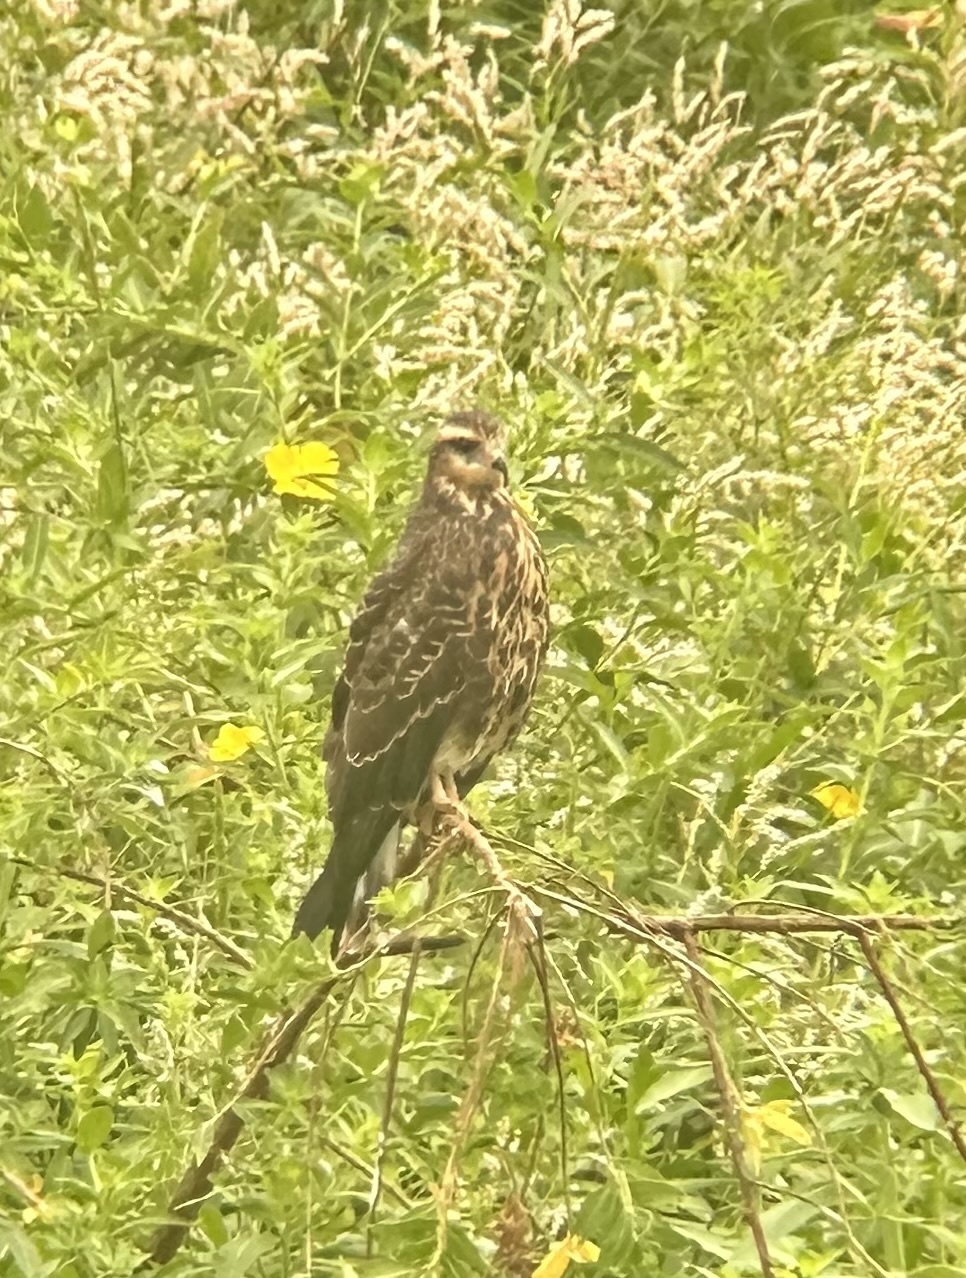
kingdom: Animalia
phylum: Chordata
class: Aves
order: Accipitriformes
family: Accipitridae
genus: Rostrhamus
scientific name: Rostrhamus sociabilis
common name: Snail kite
